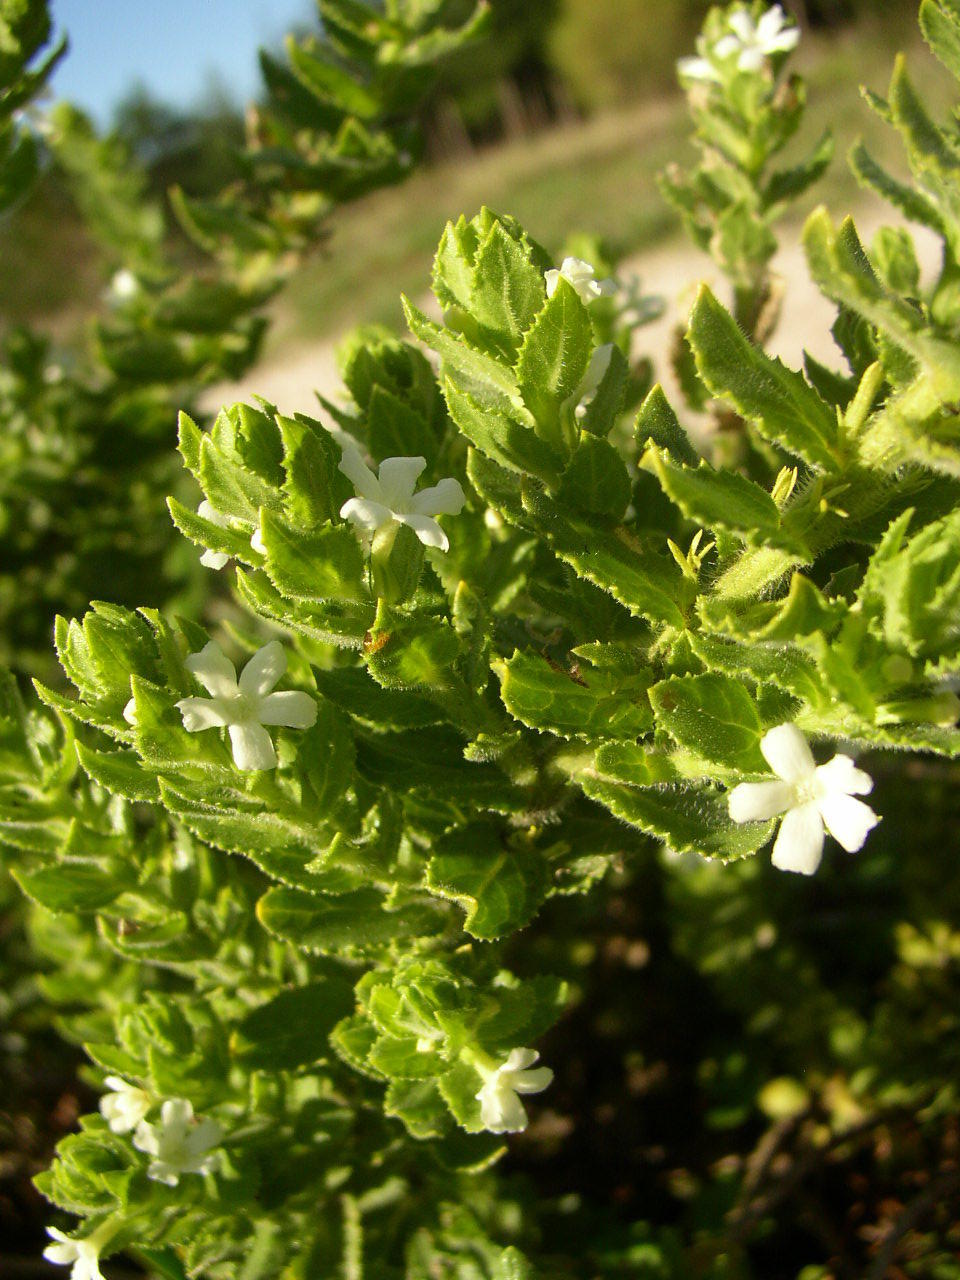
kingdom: Plantae
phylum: Tracheophyta
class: Magnoliopsida
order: Lamiales
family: Scrophulariaceae
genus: Oftia
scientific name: Oftia africana
